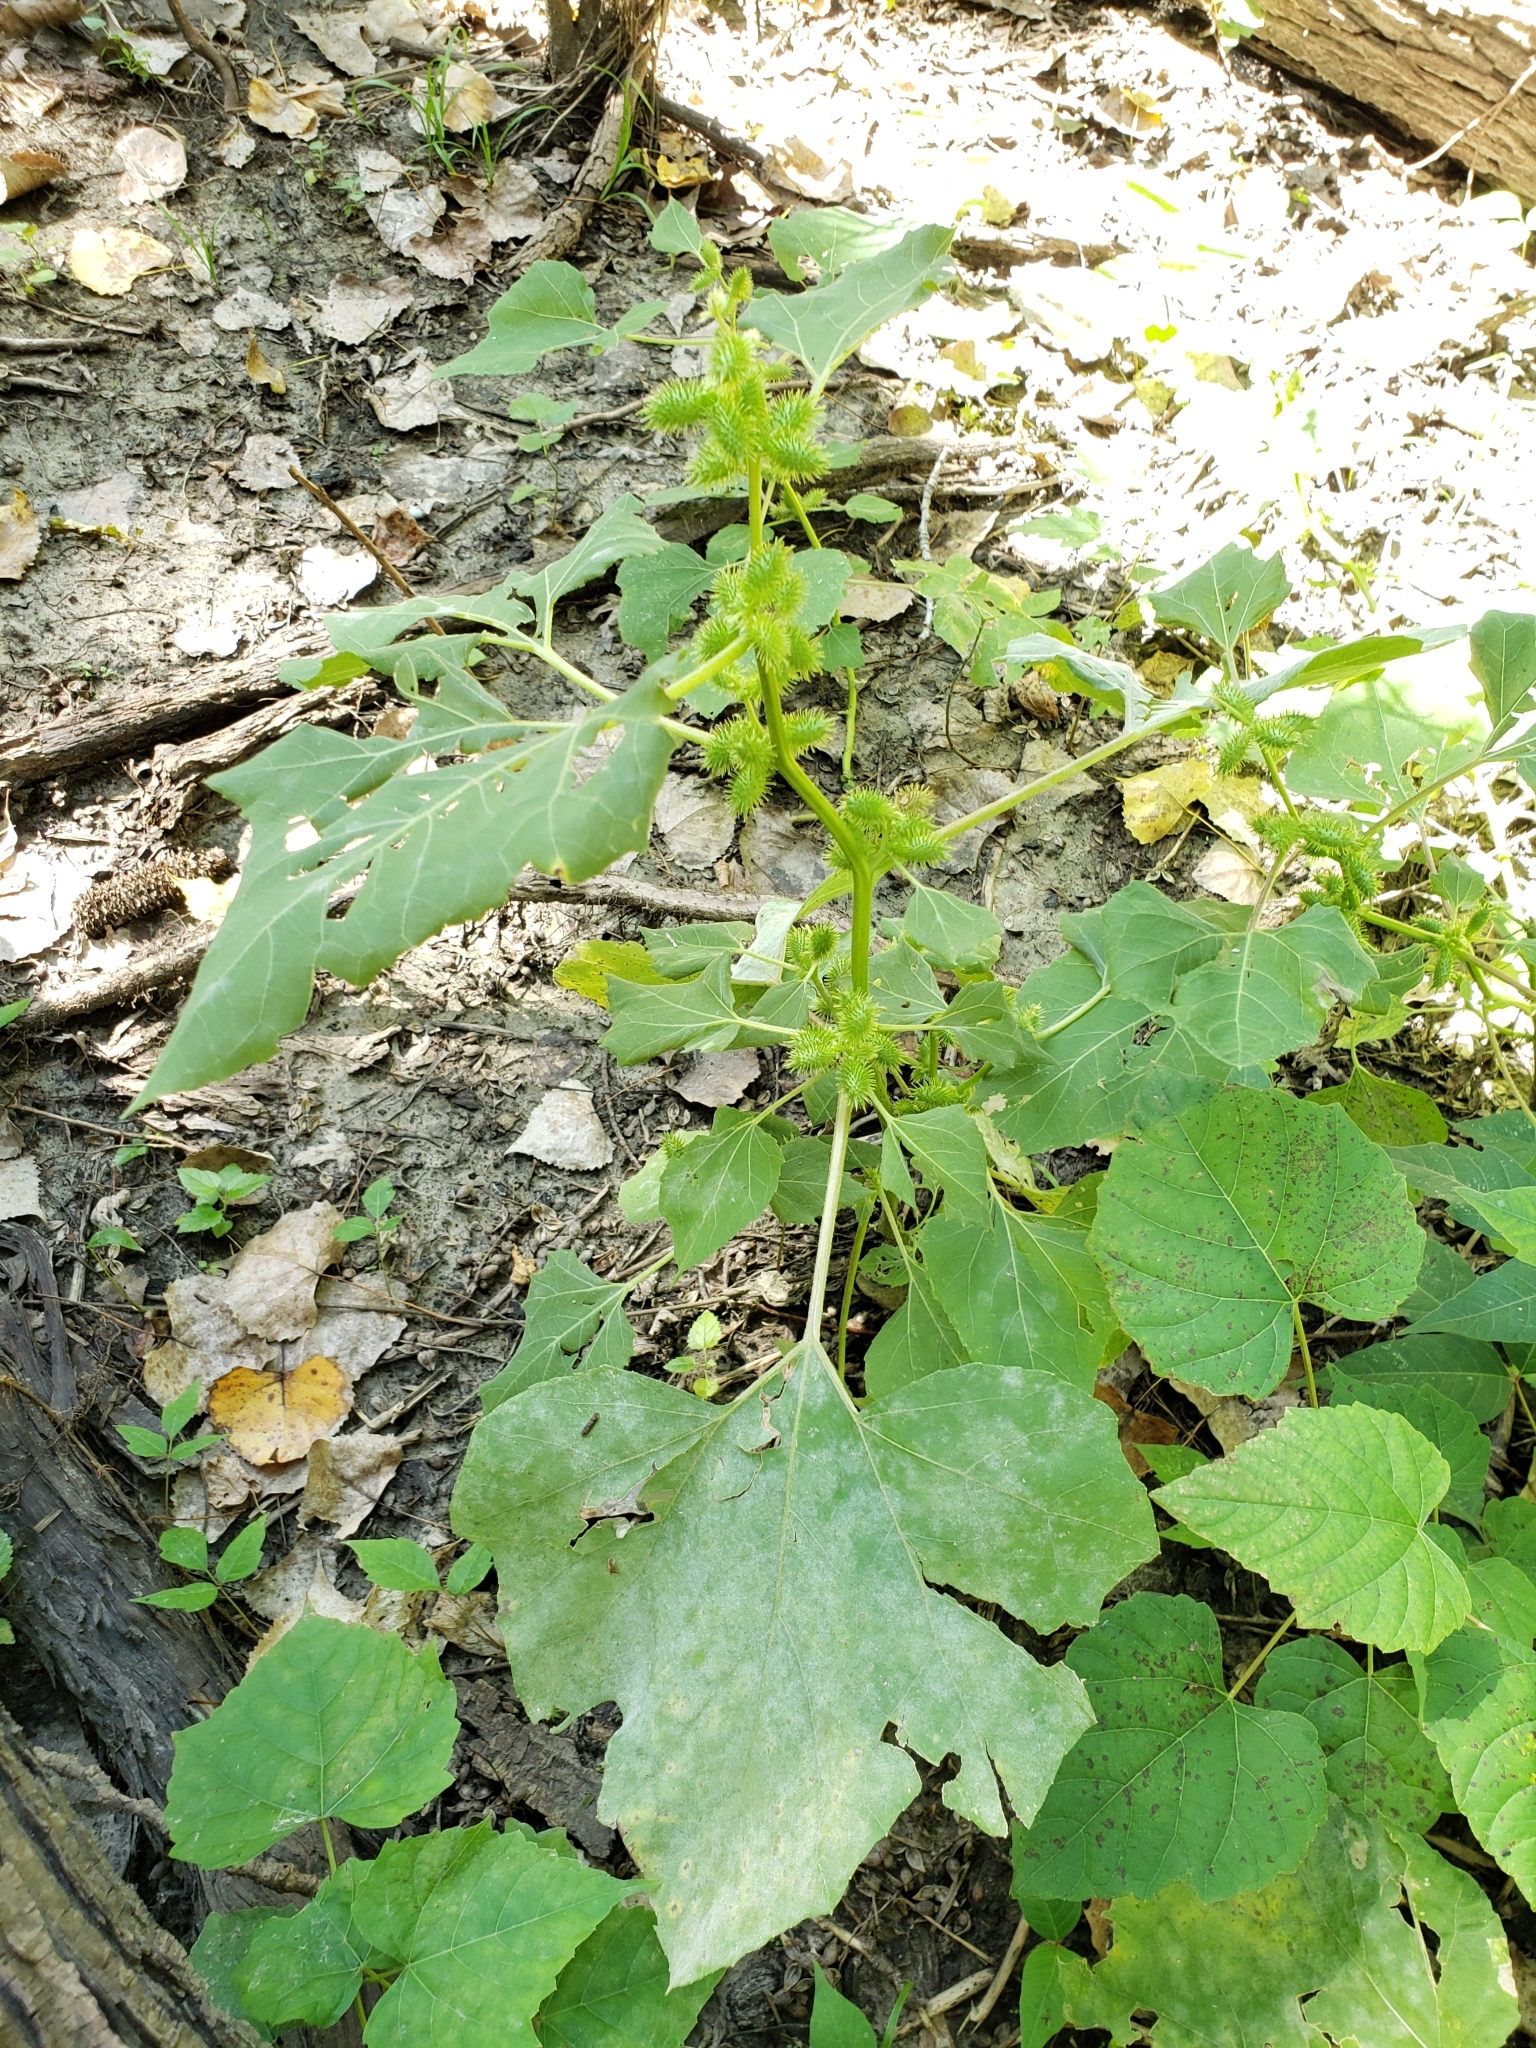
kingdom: Plantae
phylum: Tracheophyta
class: Magnoliopsida
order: Asterales
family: Asteraceae
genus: Xanthium
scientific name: Xanthium strumarium
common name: Rough cocklebur
